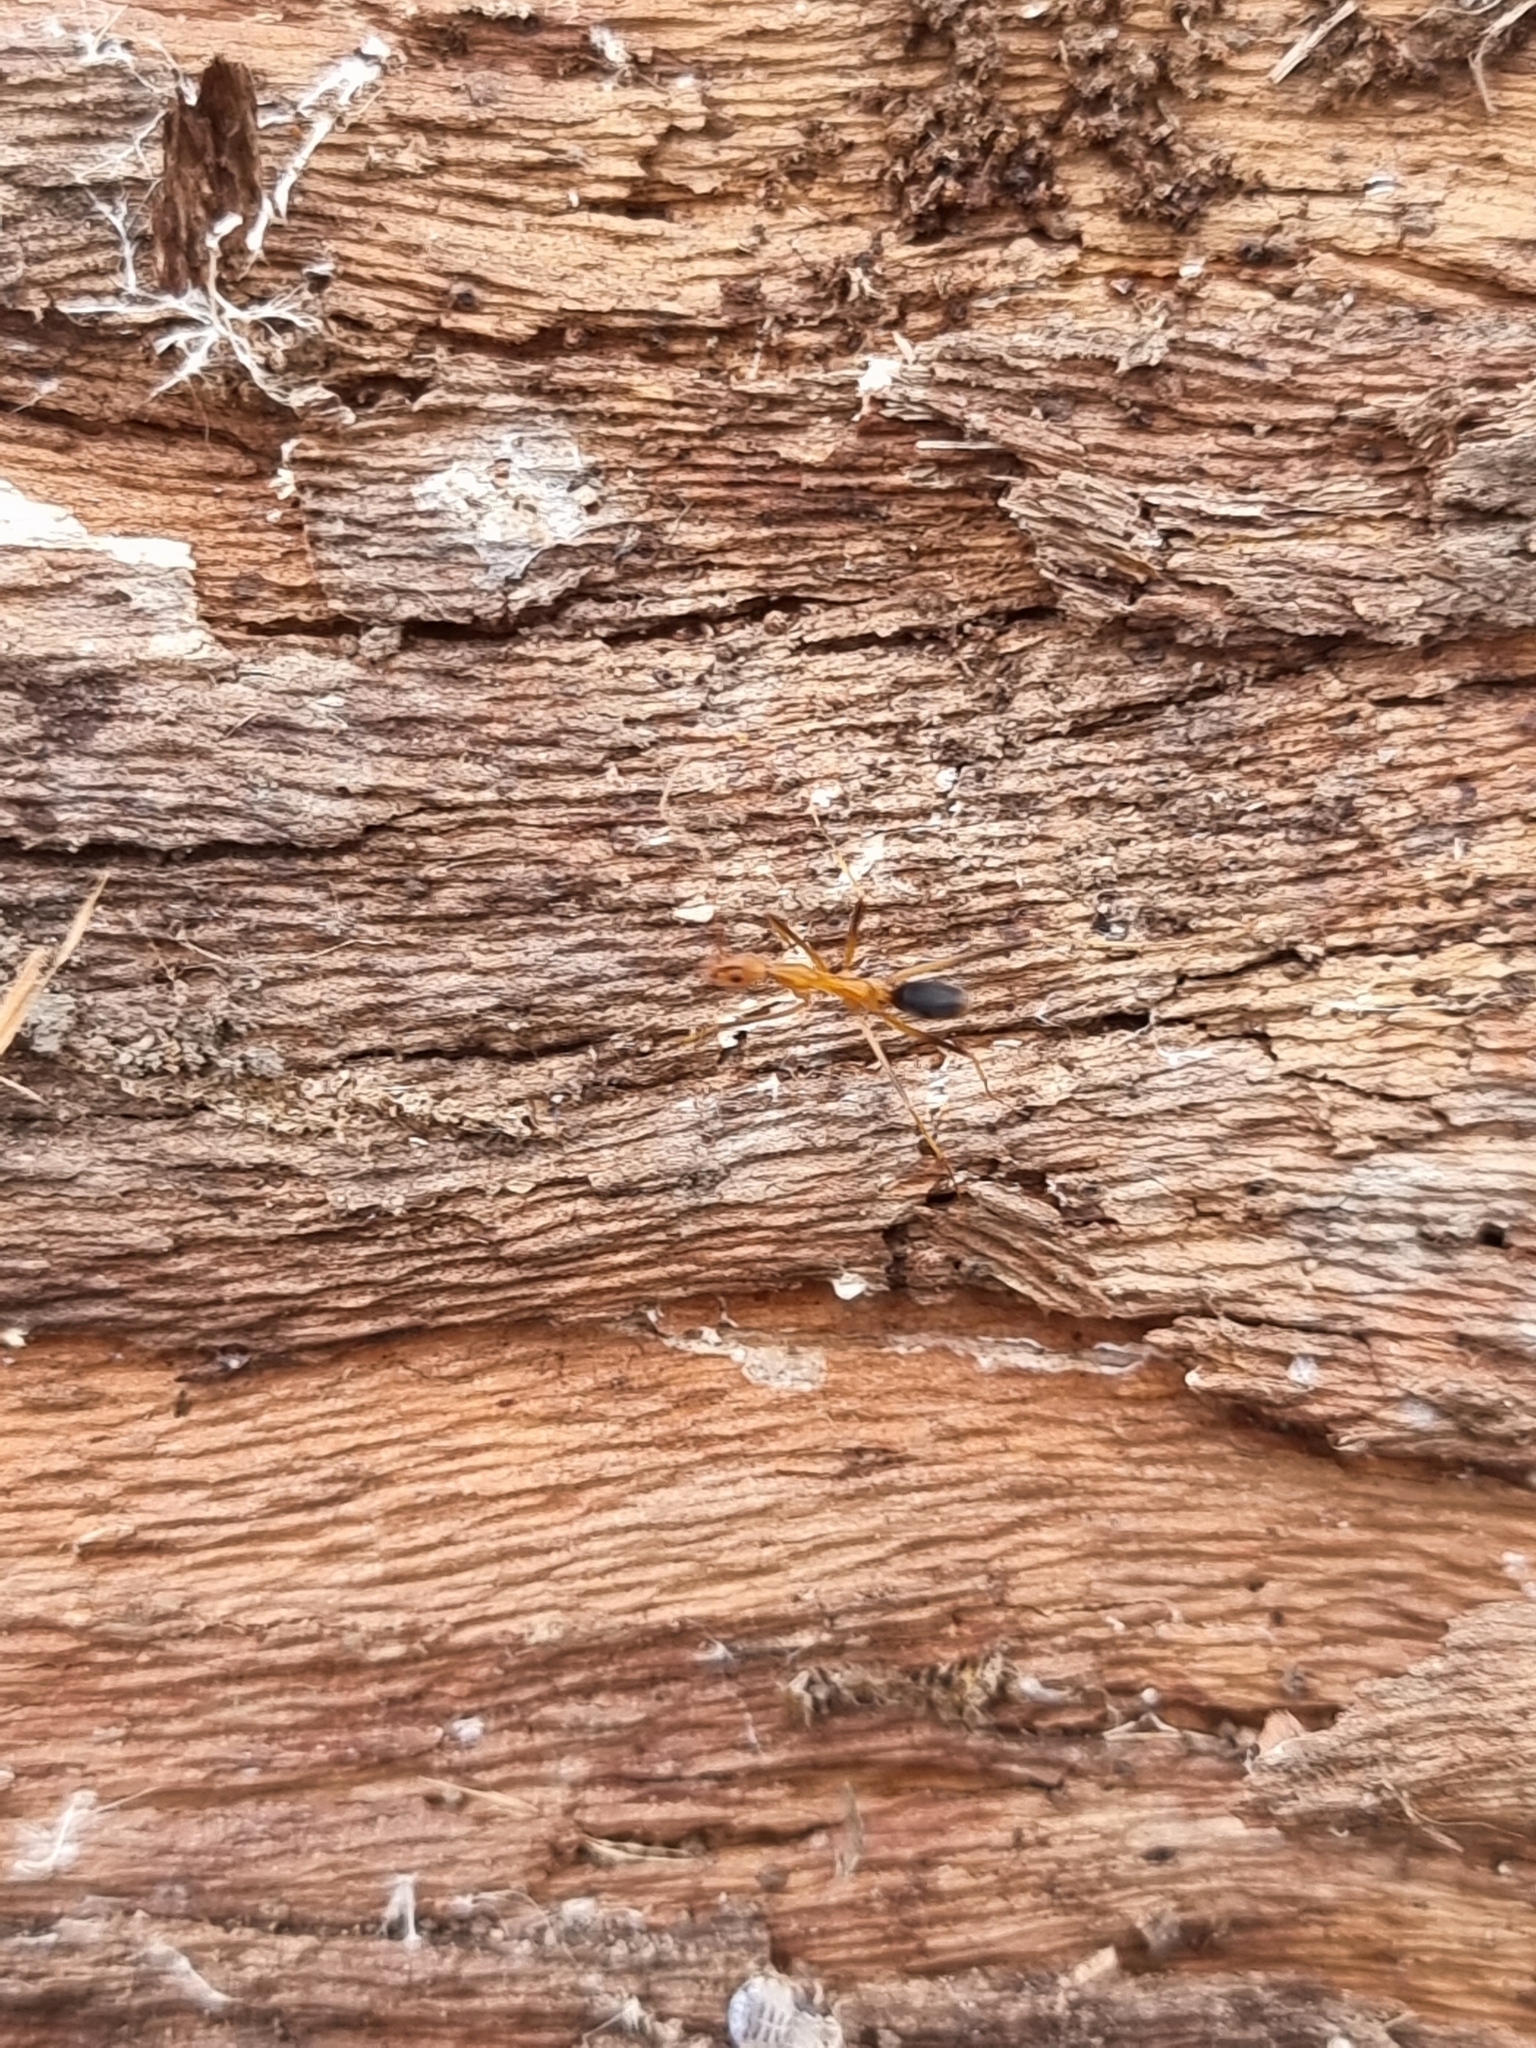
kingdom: Animalia
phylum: Arthropoda
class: Insecta
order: Hymenoptera
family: Formicidae
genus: Leptomyrmex
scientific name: Leptomyrmex rufipes
